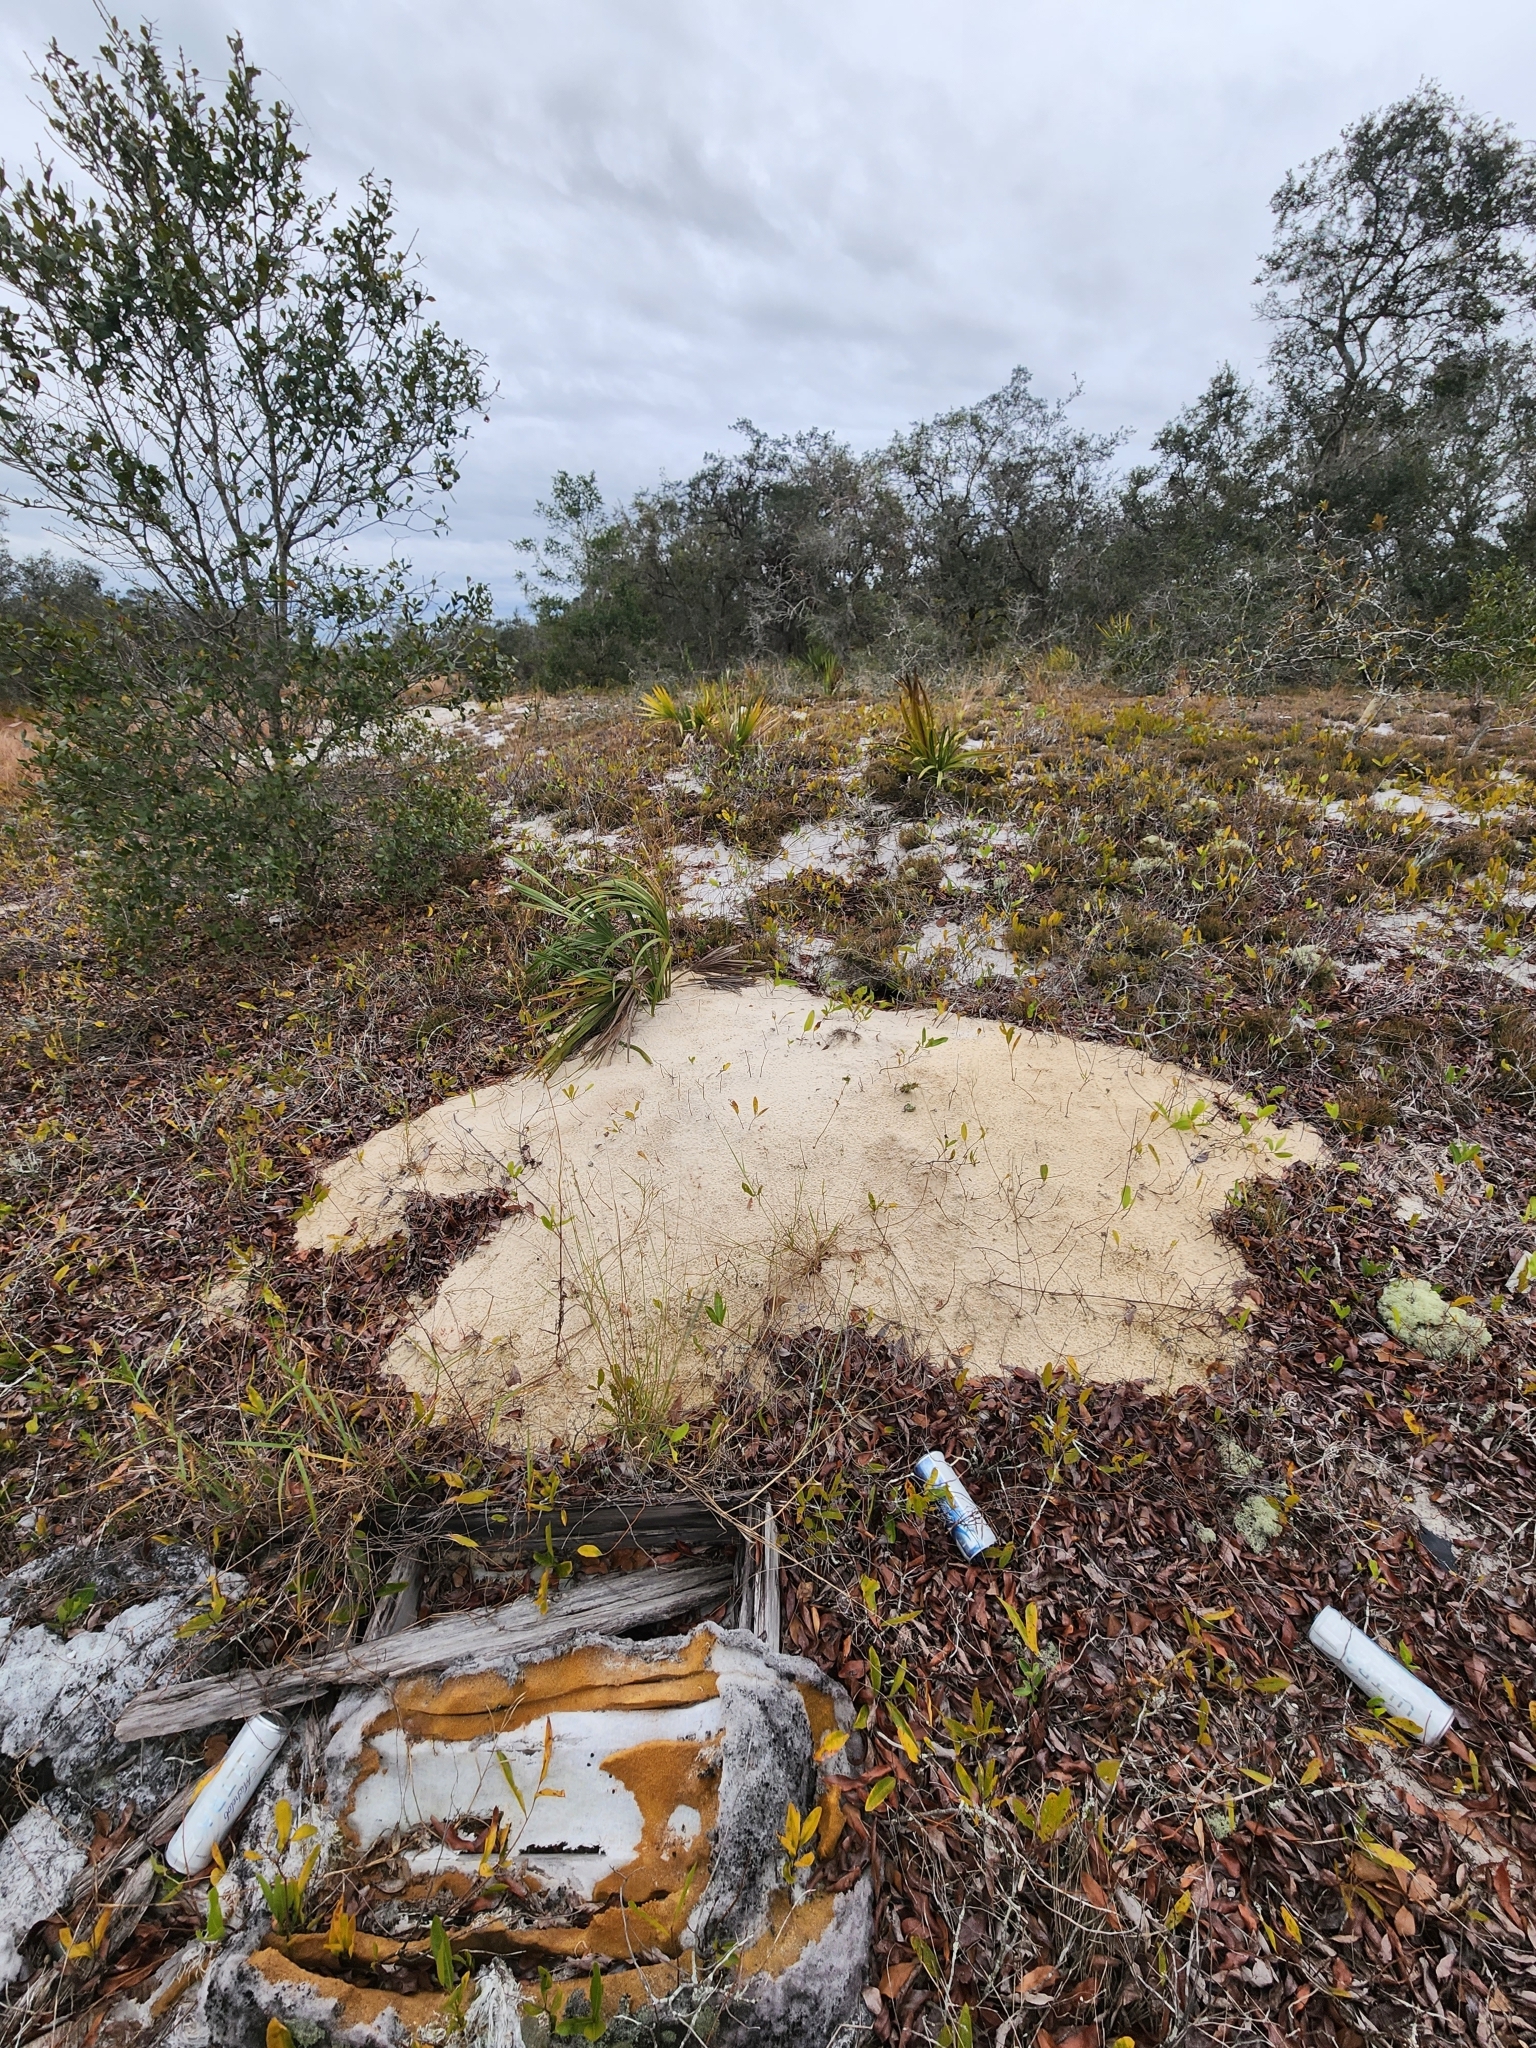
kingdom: Animalia
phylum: Chordata
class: Testudines
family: Testudinidae
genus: Gopherus
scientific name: Gopherus polyphemus
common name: Florida gopher tortoise
